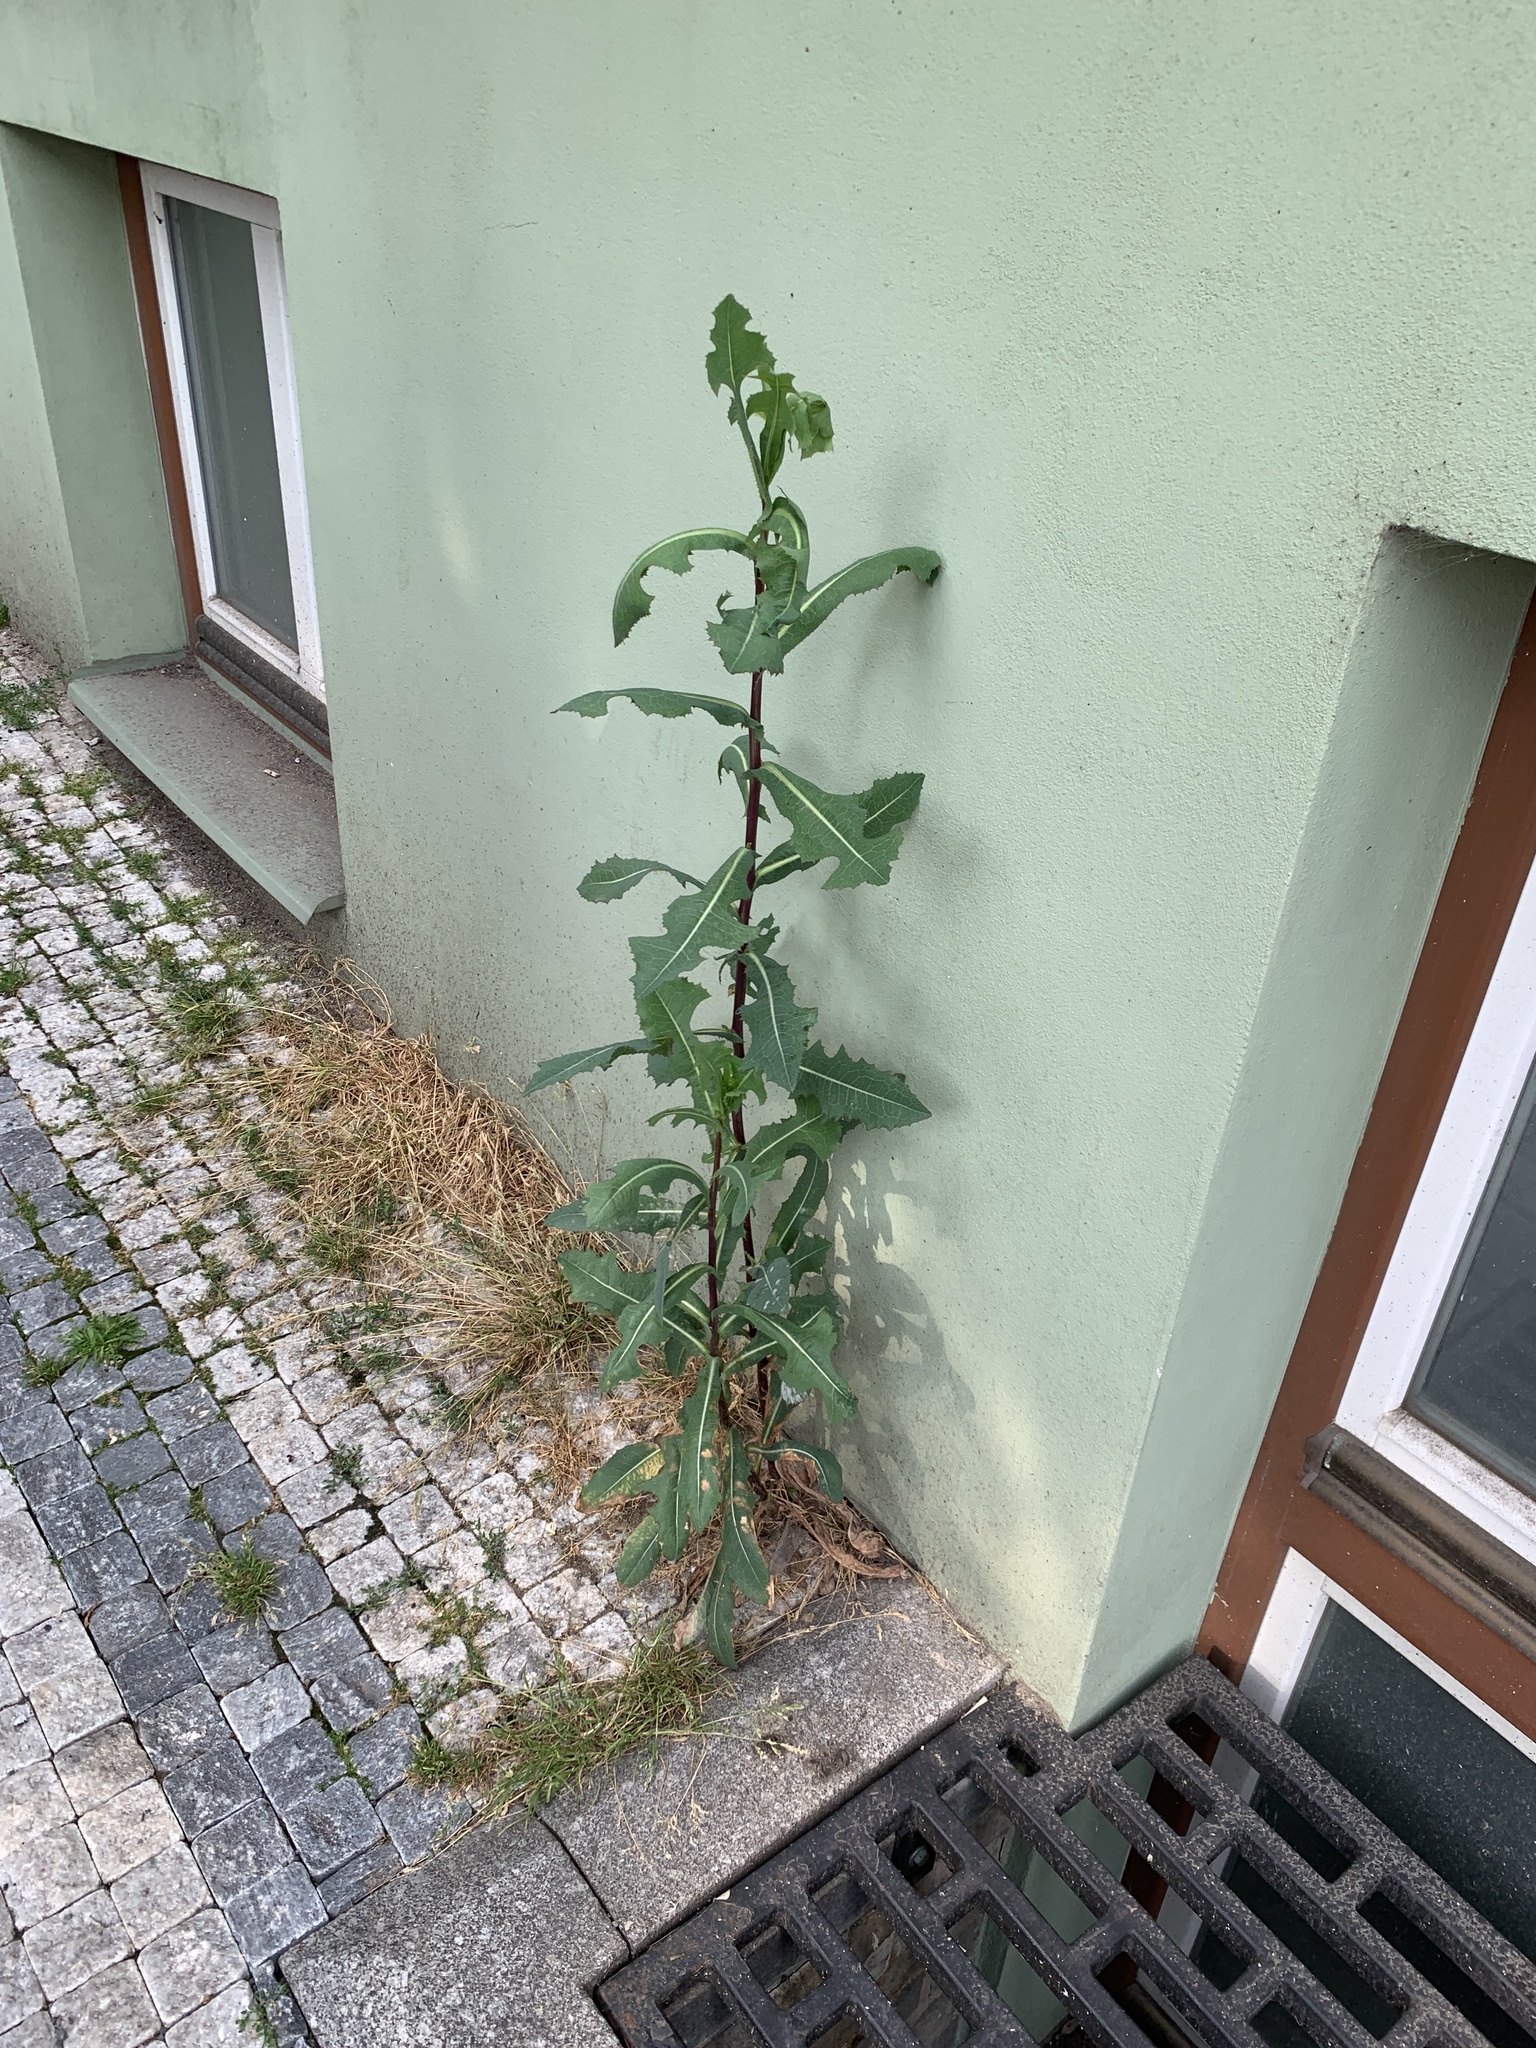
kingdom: Plantae
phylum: Tracheophyta
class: Magnoliopsida
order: Asterales
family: Asteraceae
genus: Lactuca
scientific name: Lactuca serriola
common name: Prickly lettuce
